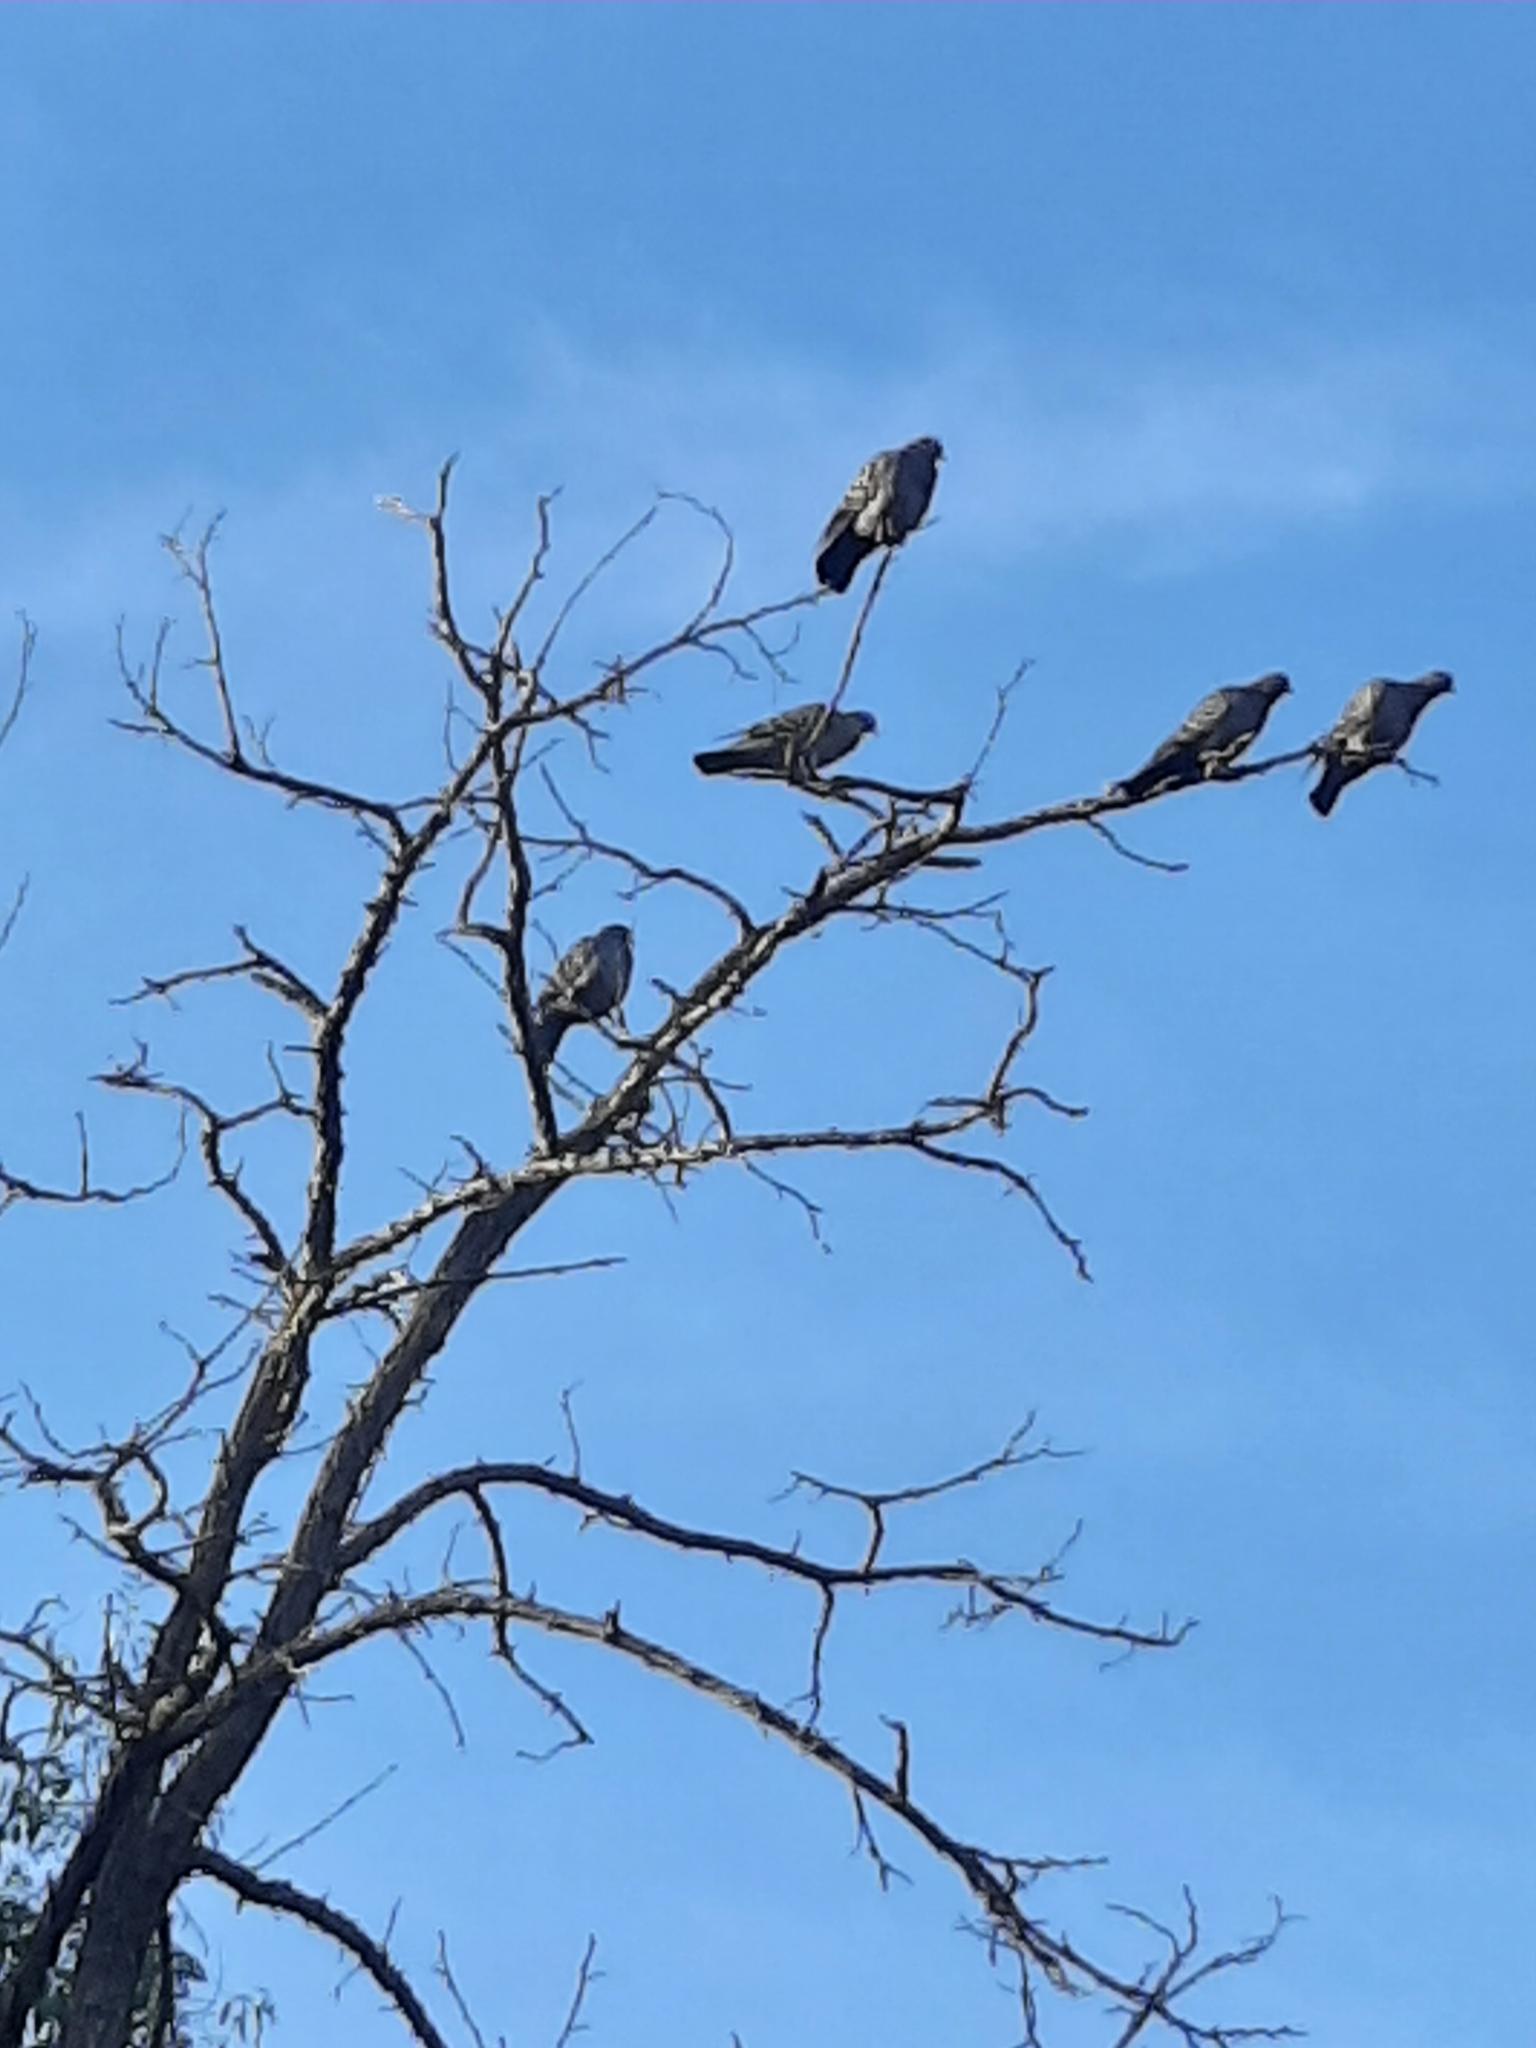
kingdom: Animalia
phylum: Chordata
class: Aves
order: Columbiformes
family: Columbidae
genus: Patagioenas
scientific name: Patagioenas maculosa
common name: Spot-winged pigeon
